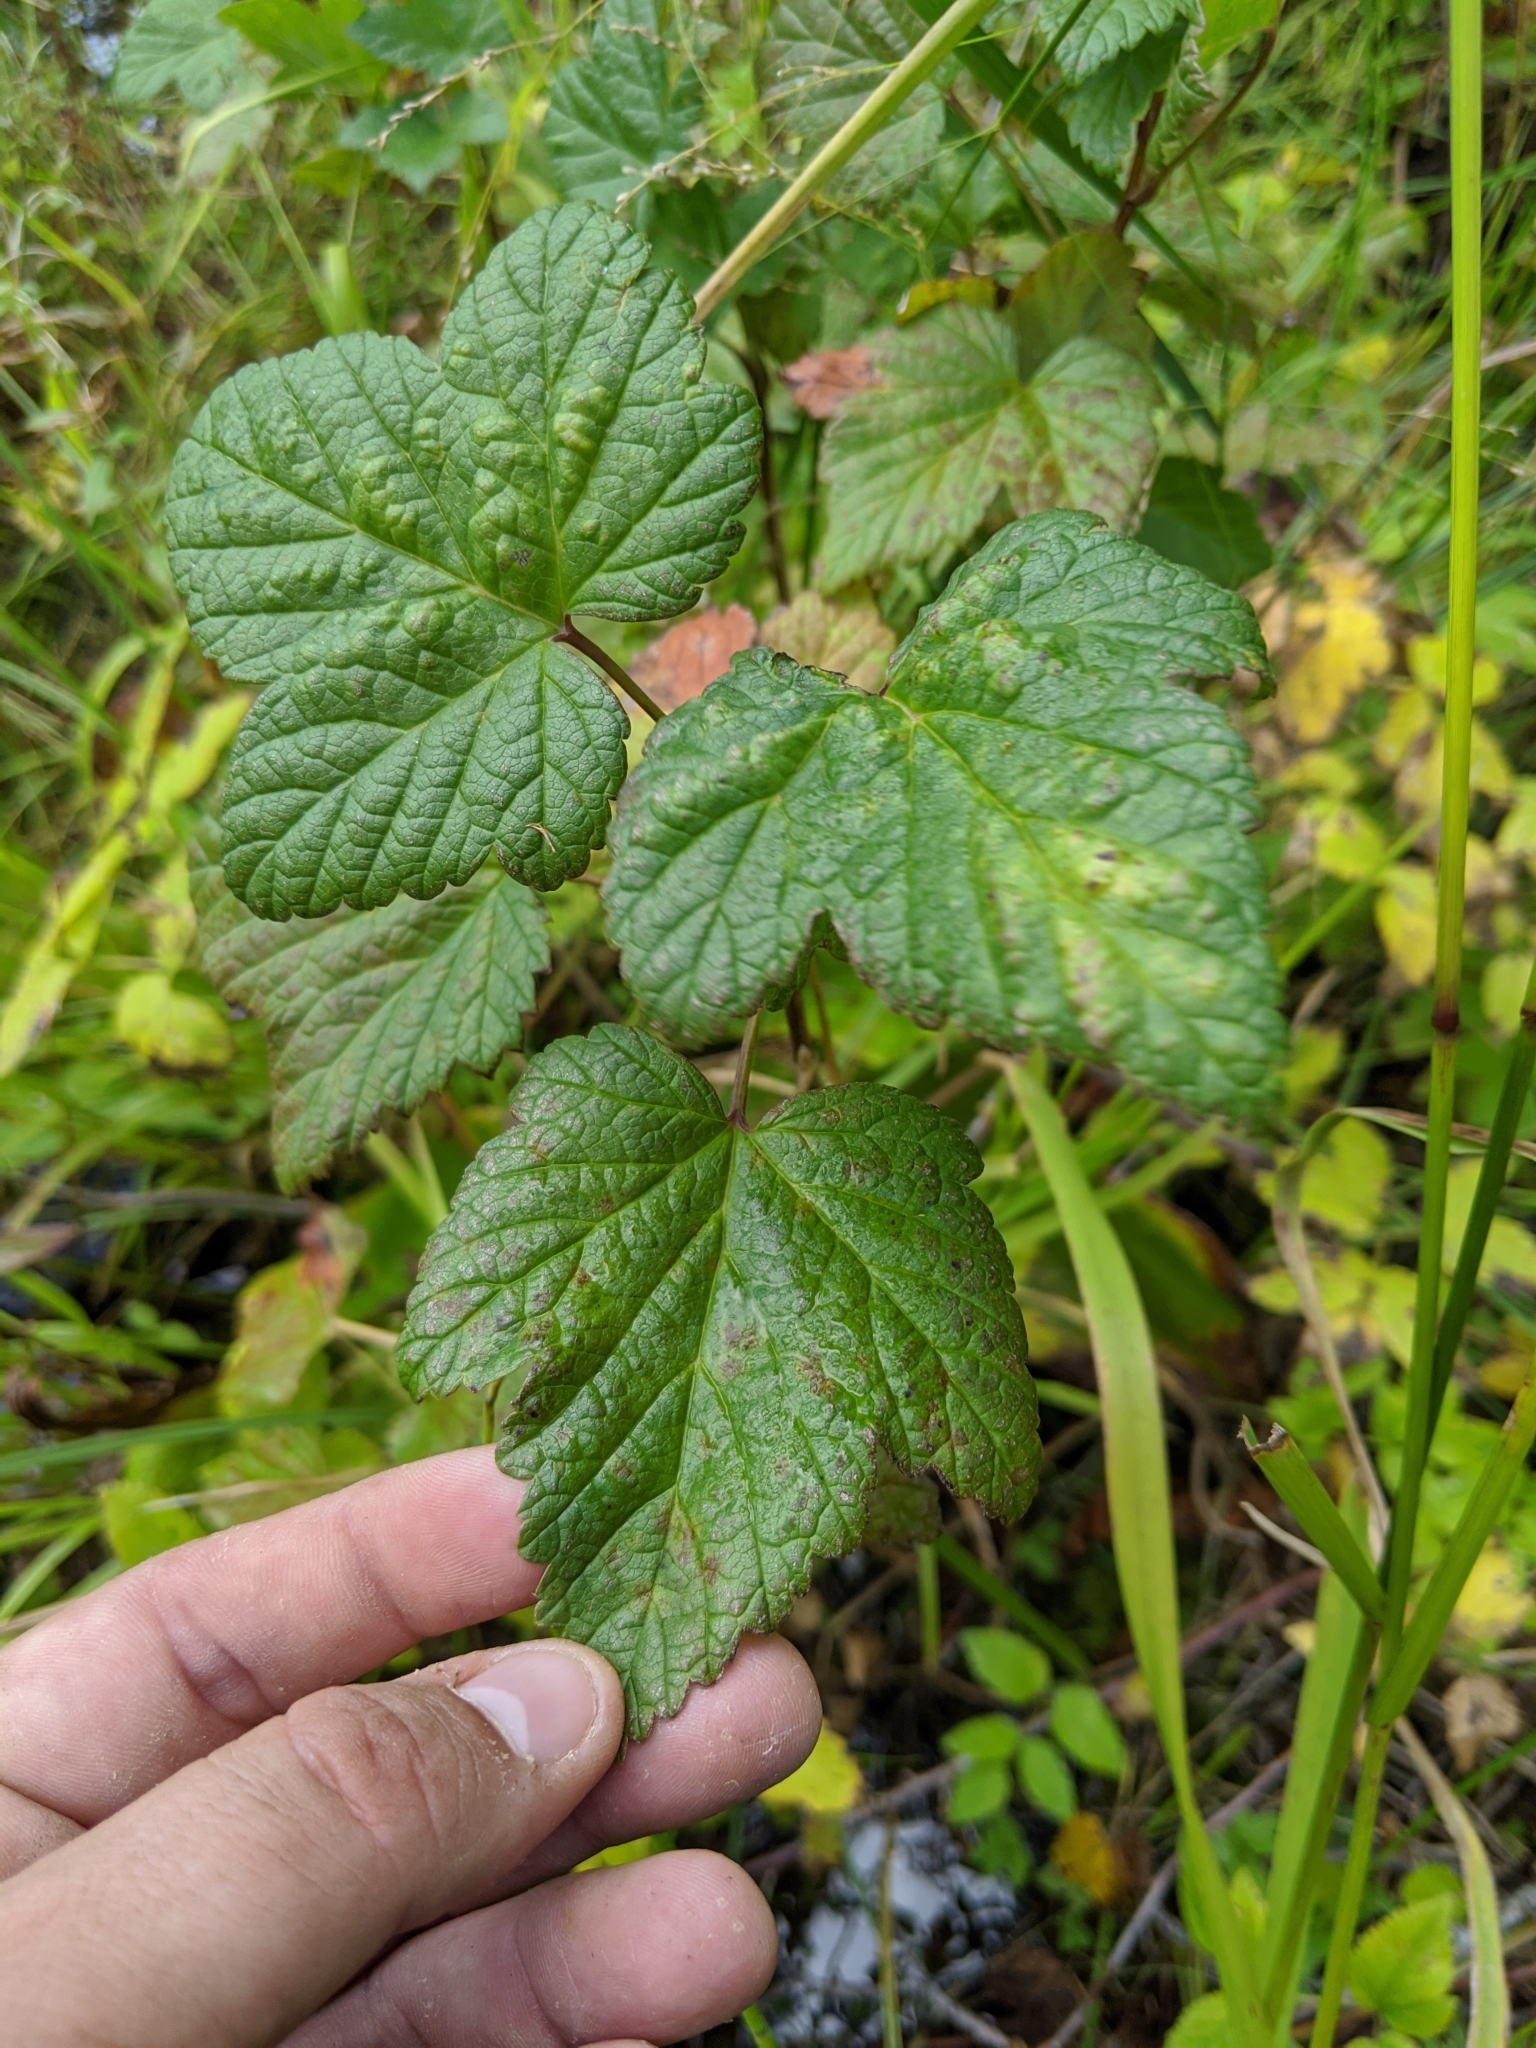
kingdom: Plantae
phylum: Tracheophyta
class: Magnoliopsida
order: Saxifragales
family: Grossulariaceae
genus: Ribes
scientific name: Ribes sanguineum
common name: Flowering currant
